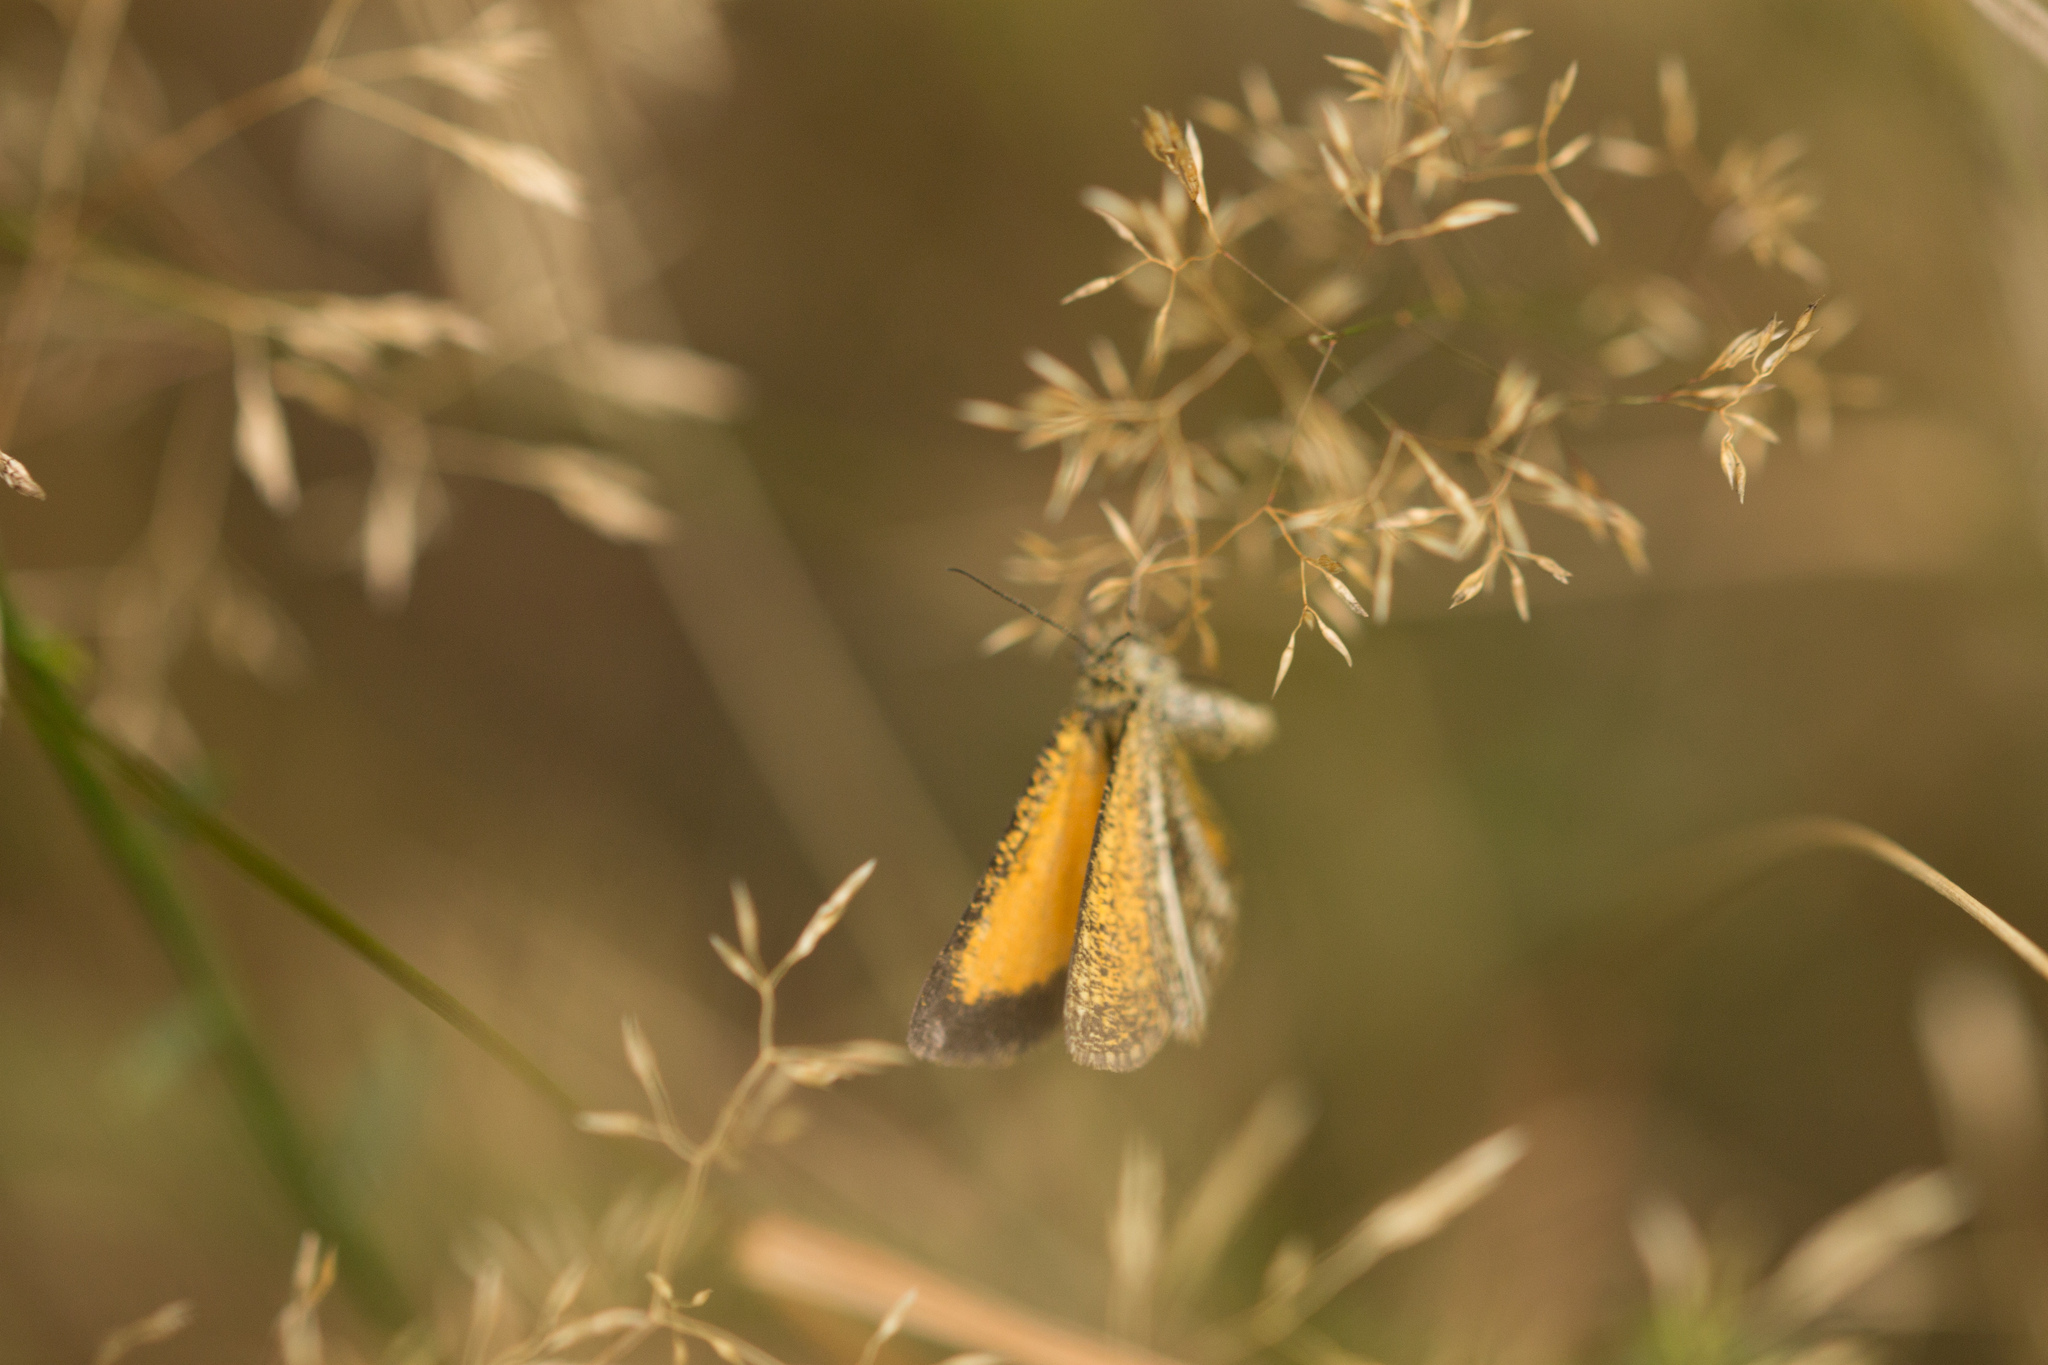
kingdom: Animalia
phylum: Arthropoda
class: Insecta
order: Lepidoptera
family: Geometridae
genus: Isturgia
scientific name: Isturgia limbaria
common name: Frosted yellow
